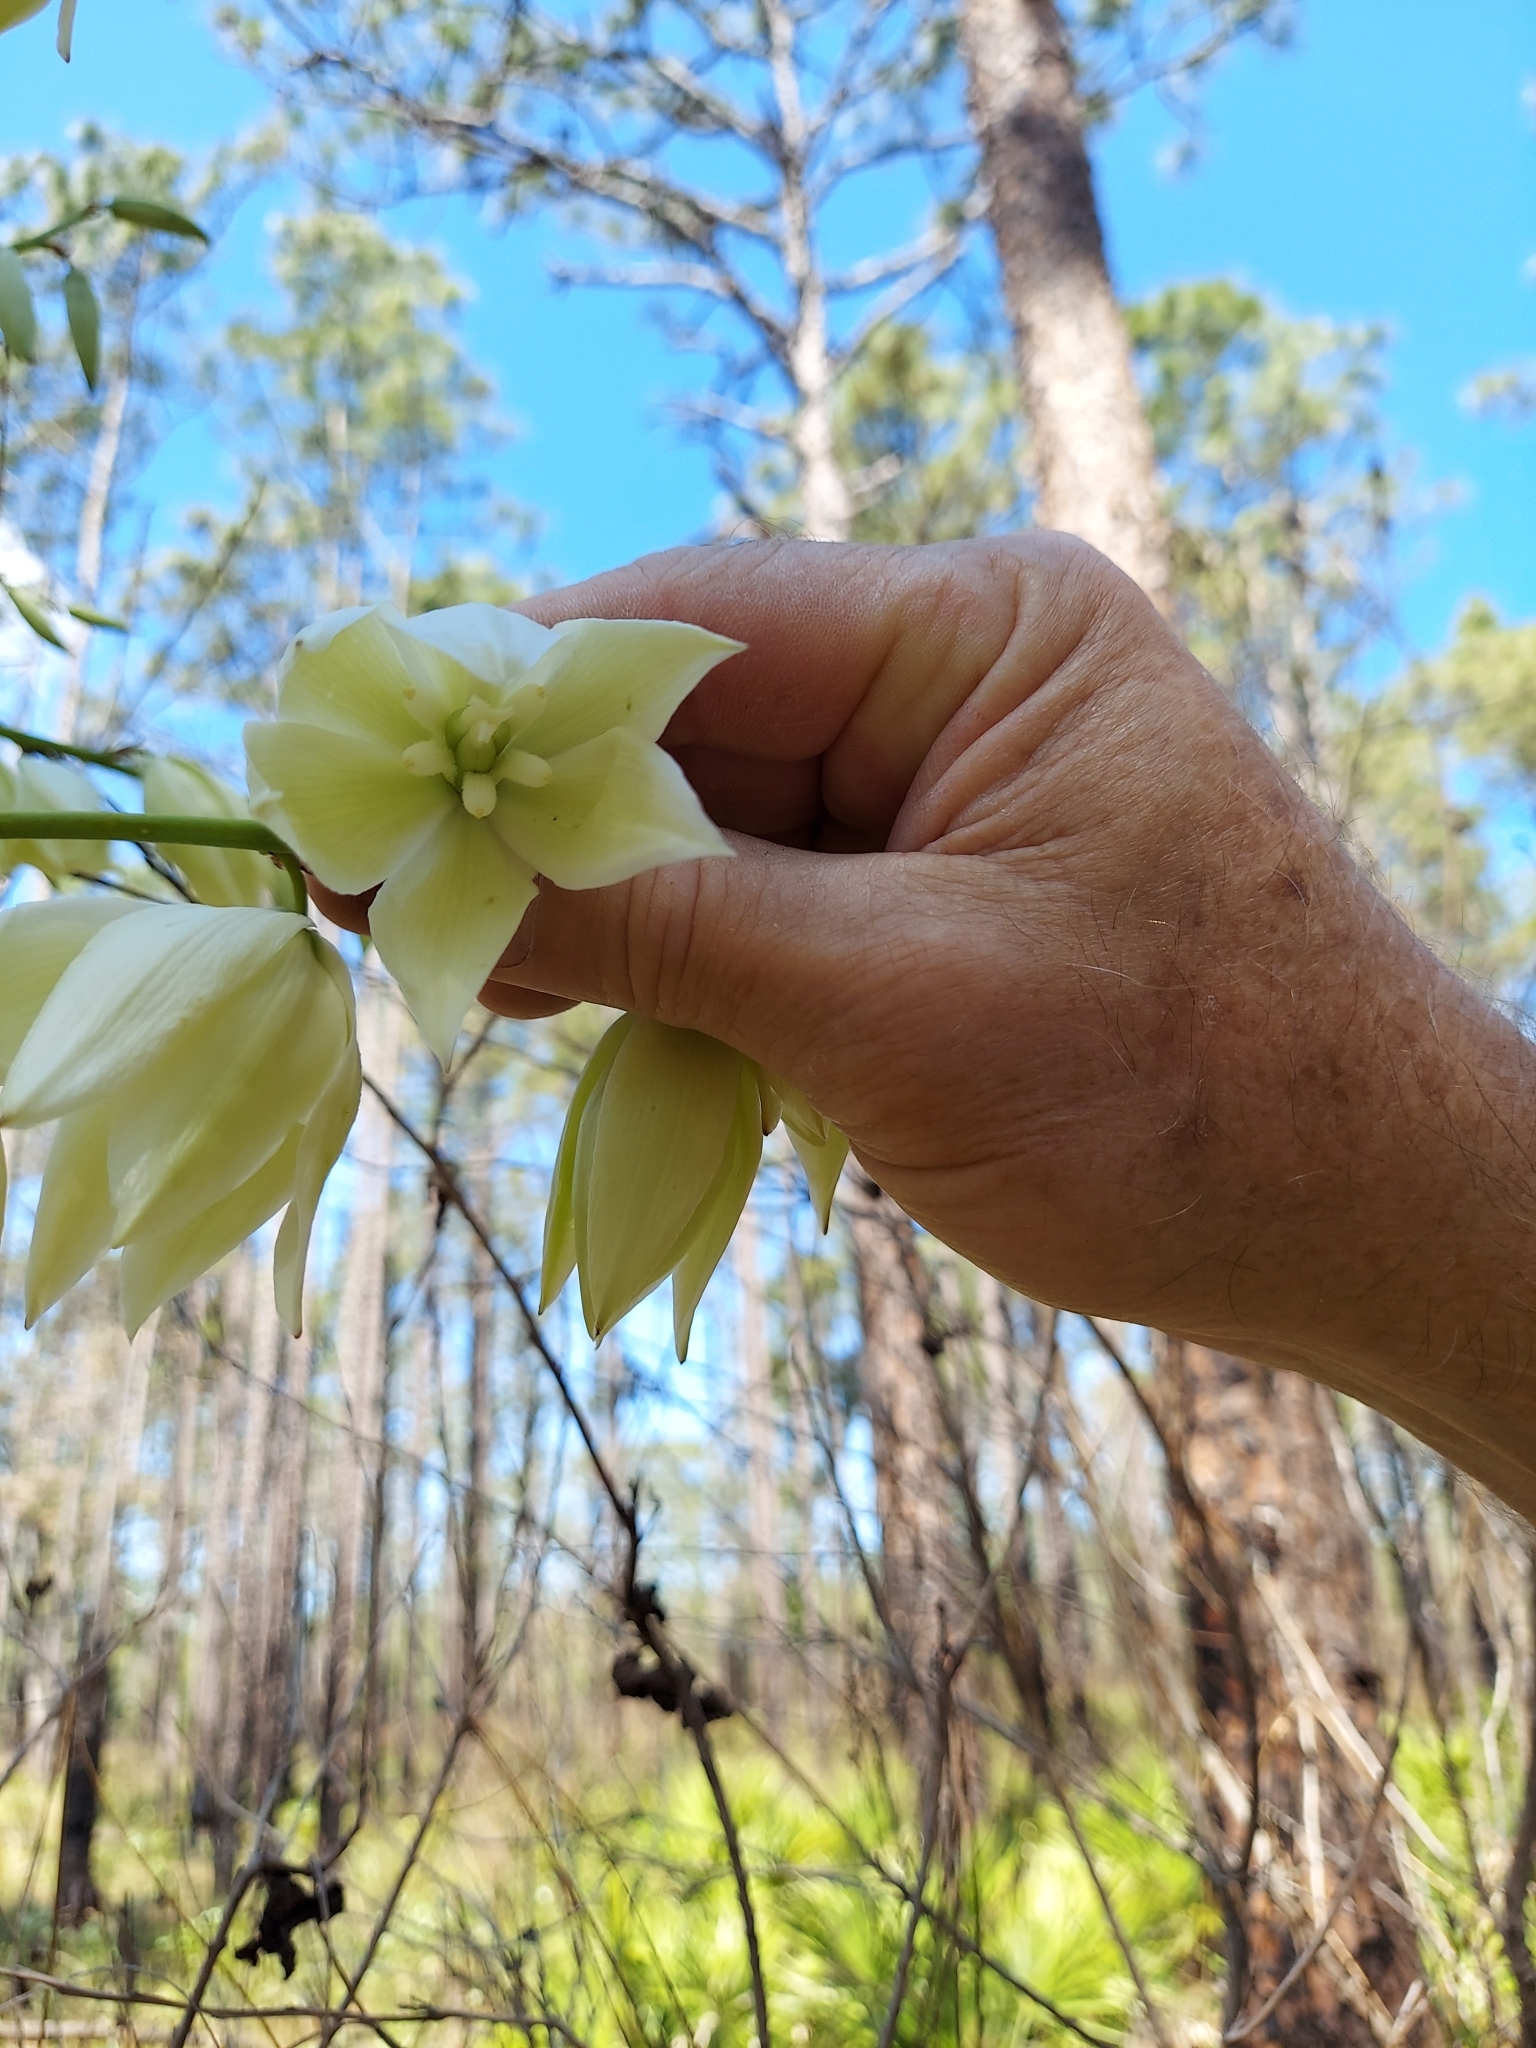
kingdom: Plantae
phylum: Tracheophyta
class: Liliopsida
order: Asparagales
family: Asparagaceae
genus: Yucca
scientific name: Yucca filamentosa
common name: Adam's-needle
